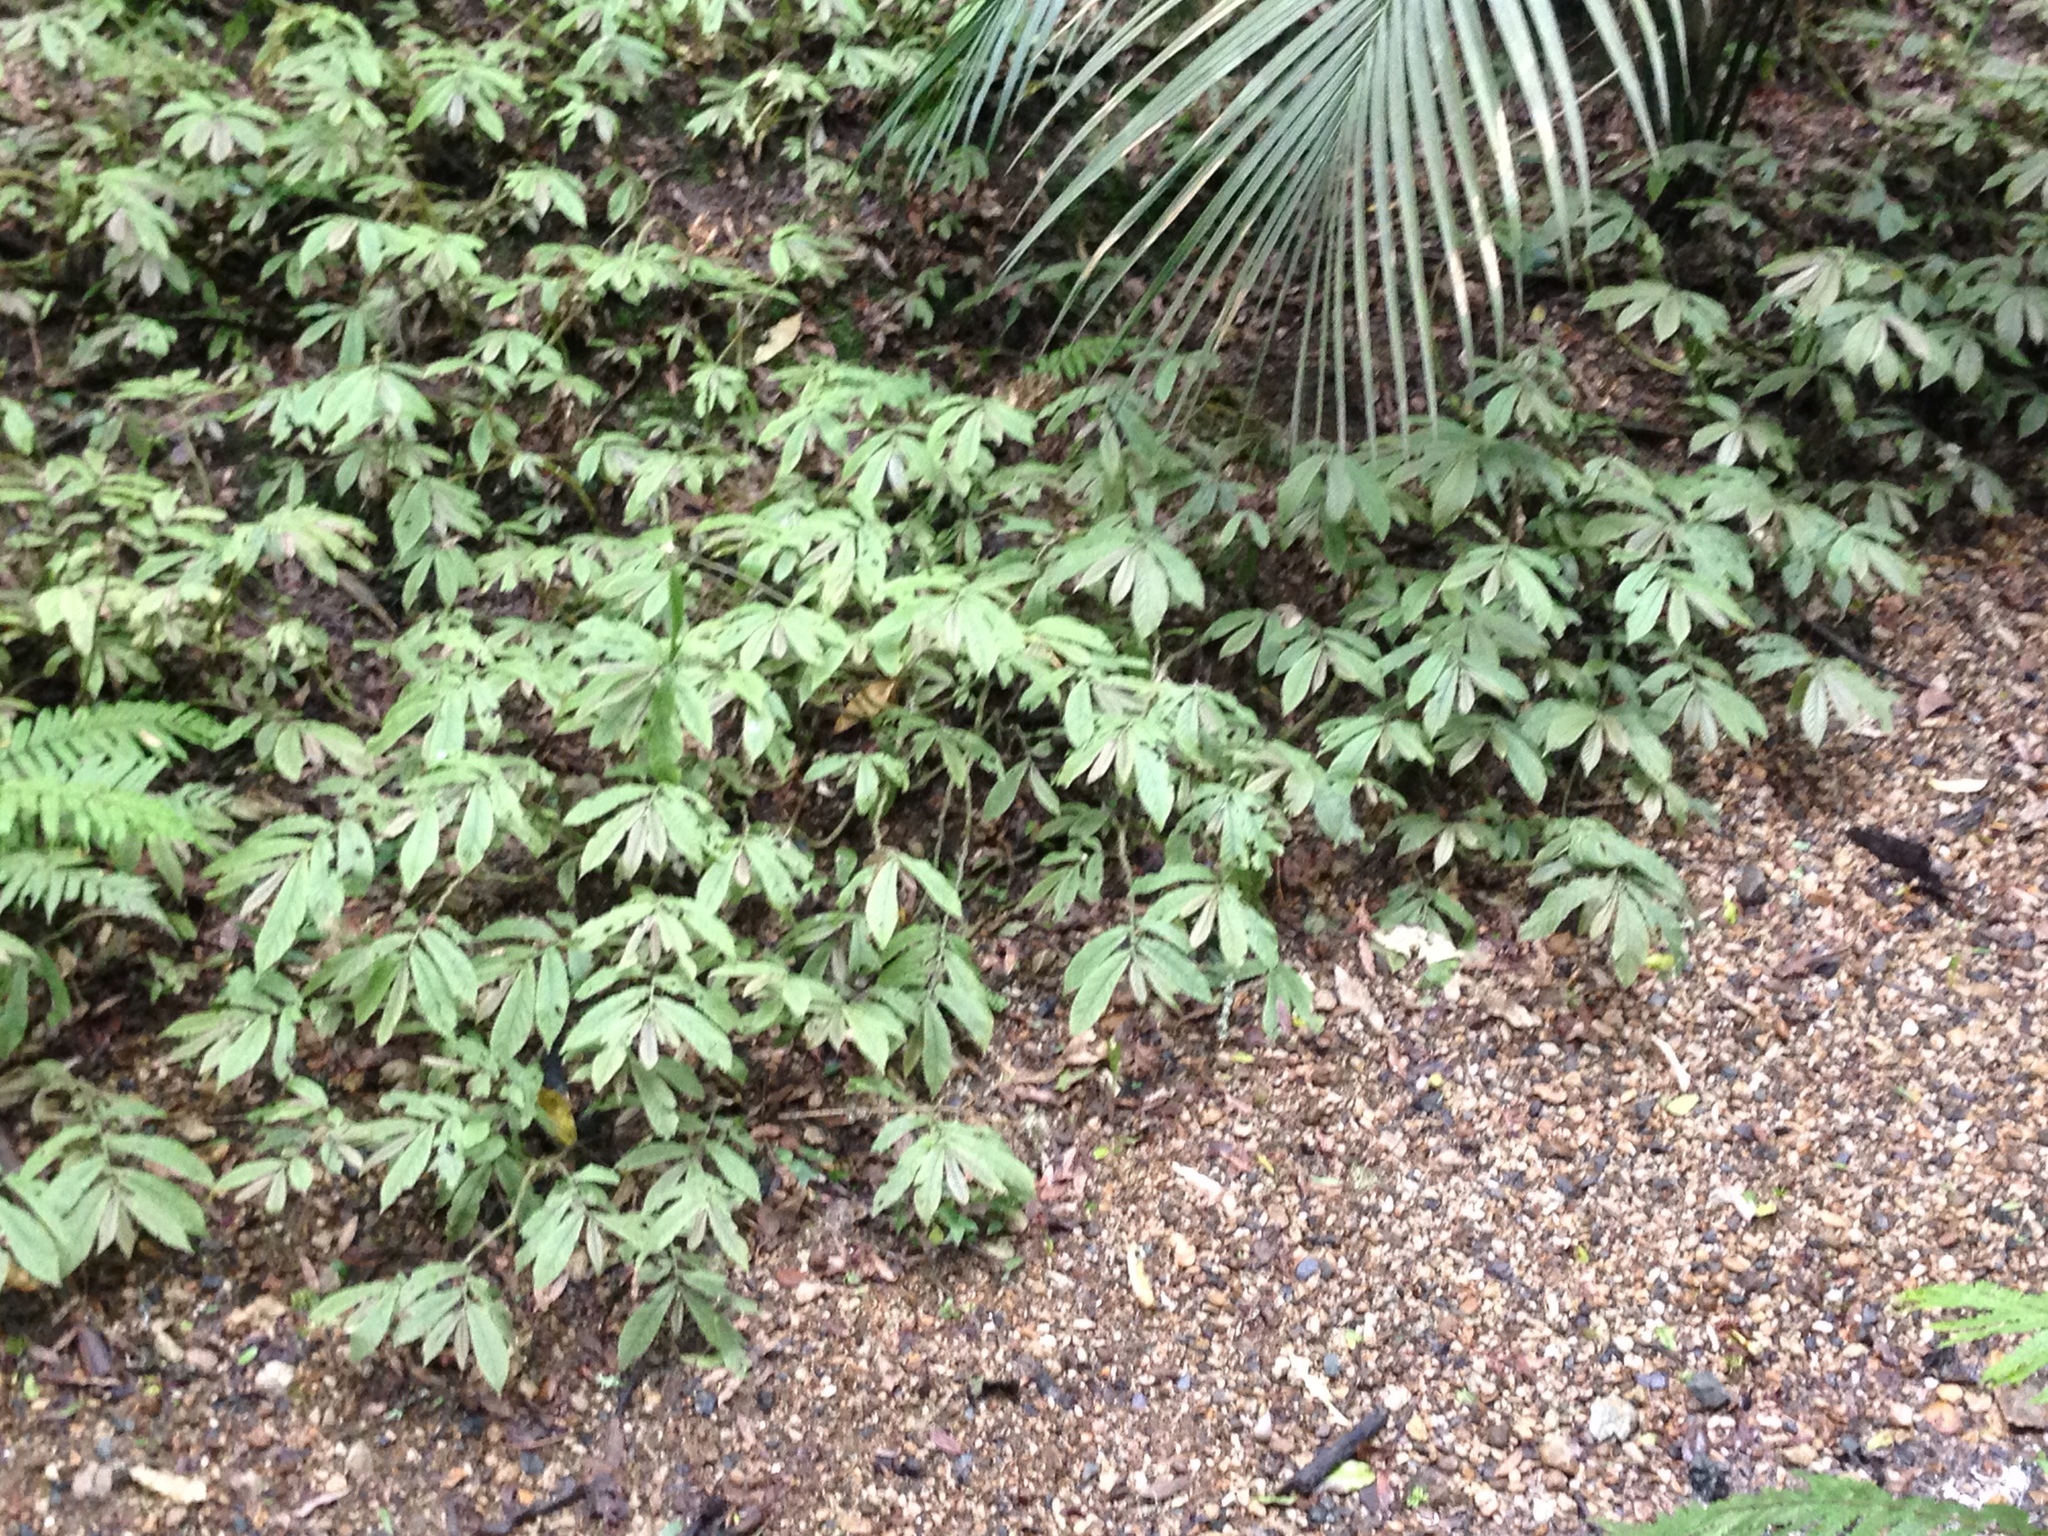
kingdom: Plantae
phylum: Tracheophyta
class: Magnoliopsida
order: Rosales
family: Urticaceae
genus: Elatostema
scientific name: Elatostema rugosum
